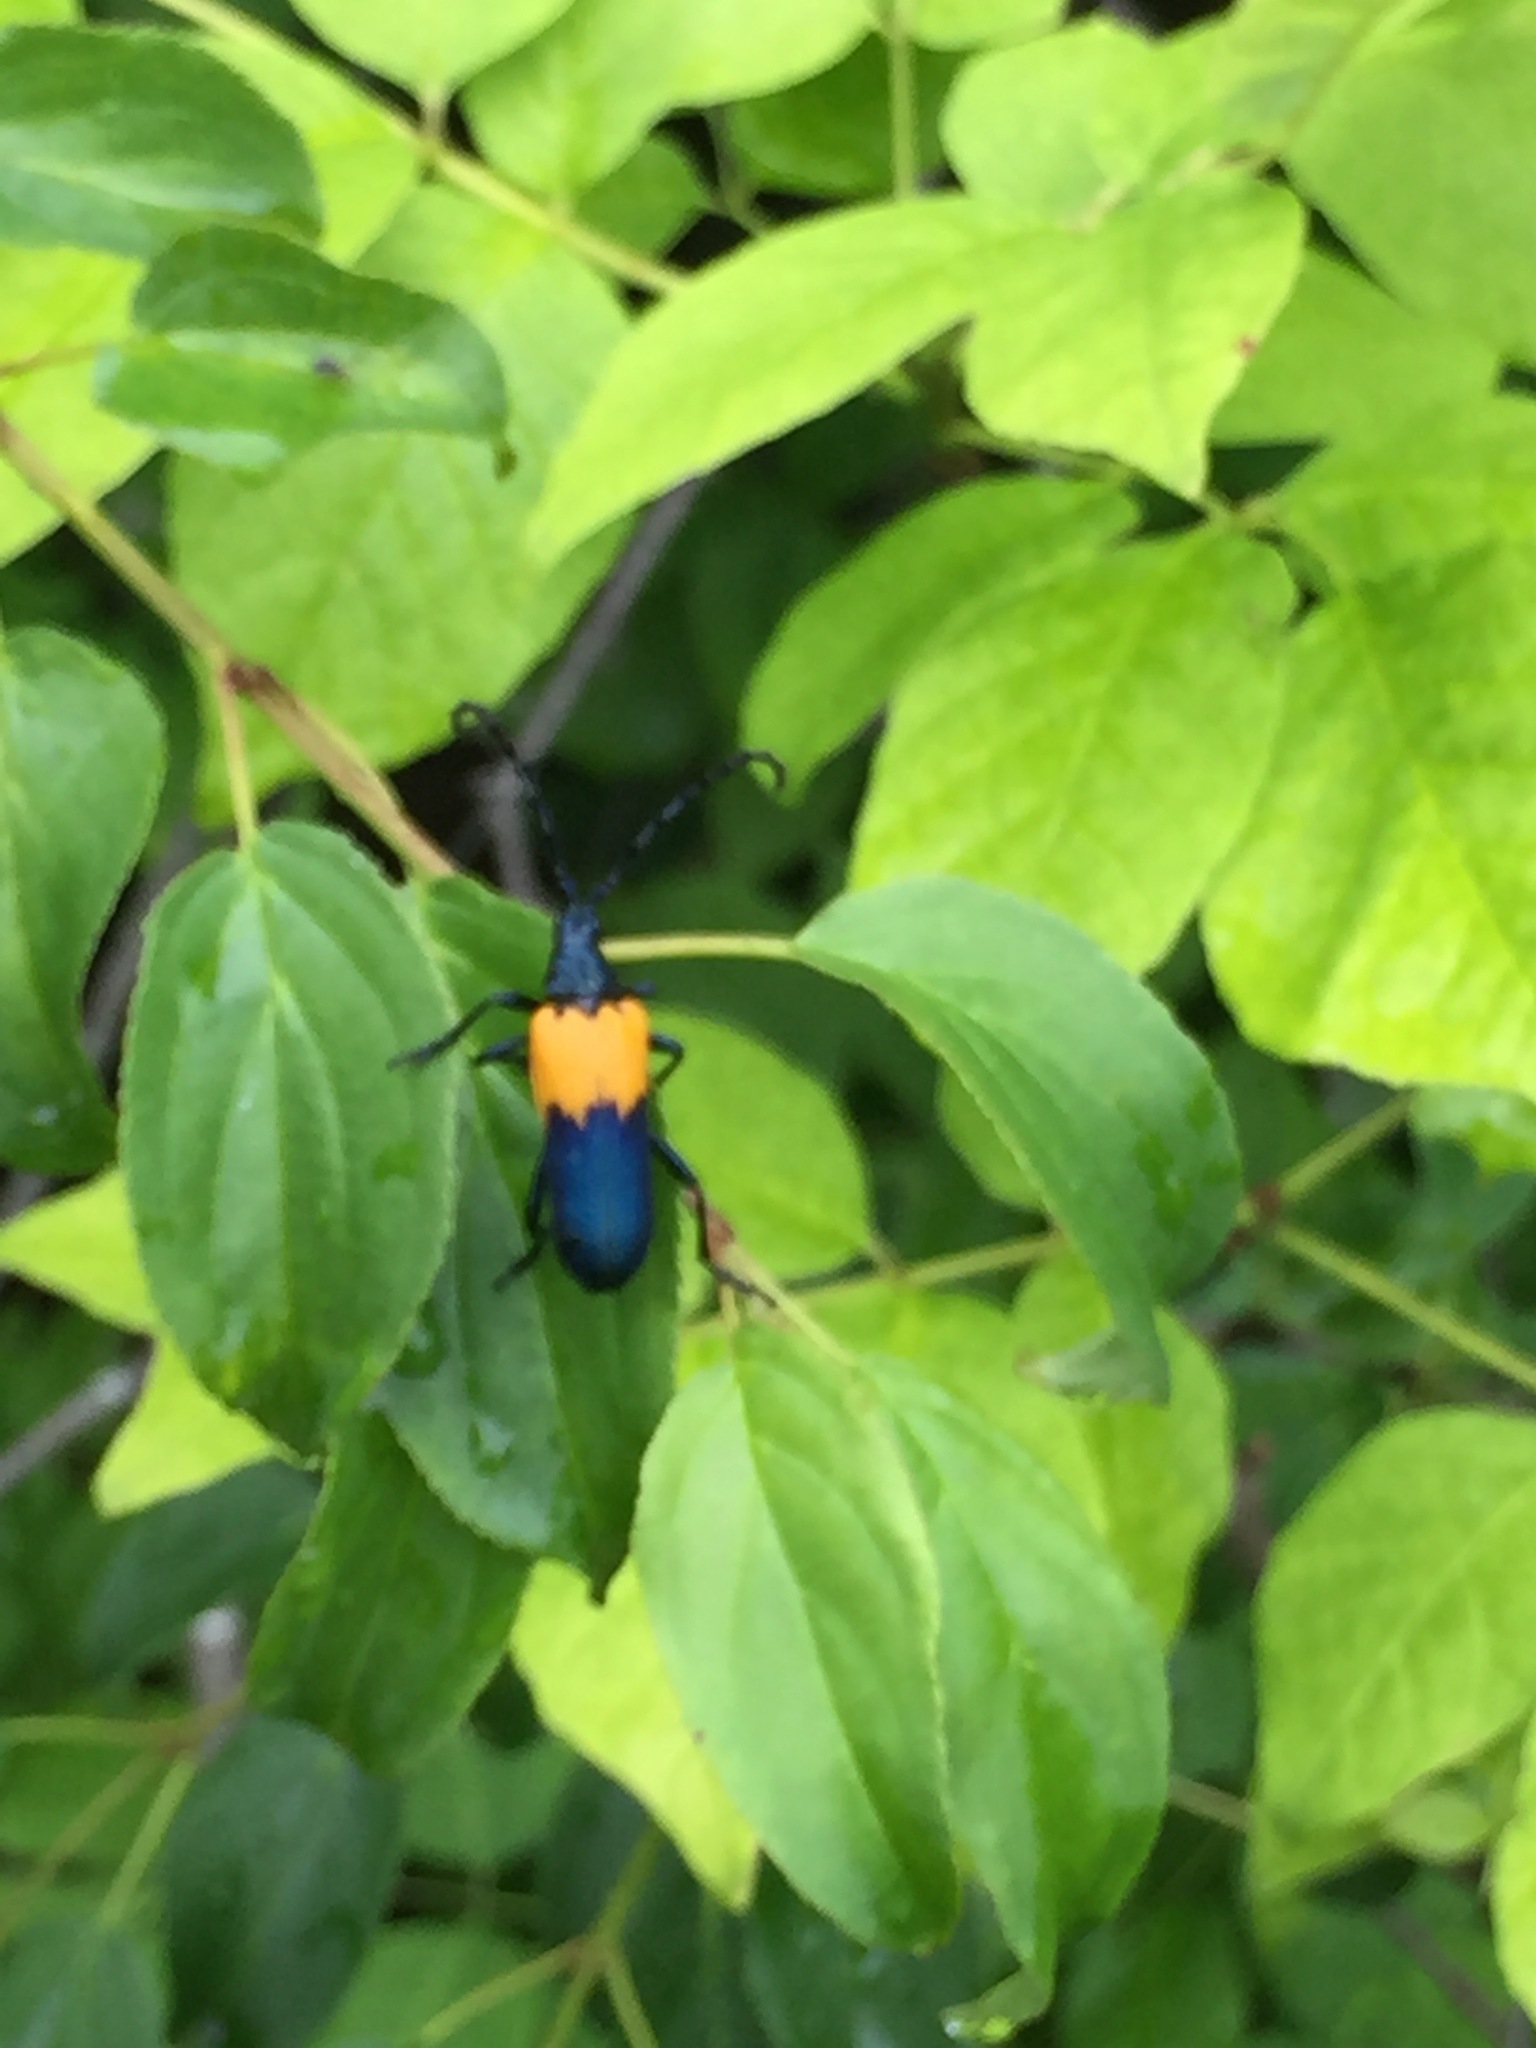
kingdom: Animalia
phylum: Arthropoda
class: Insecta
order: Coleoptera
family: Cerambycidae
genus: Desmocerus
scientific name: Desmocerus palliatus
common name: Eastern elderberry borer
